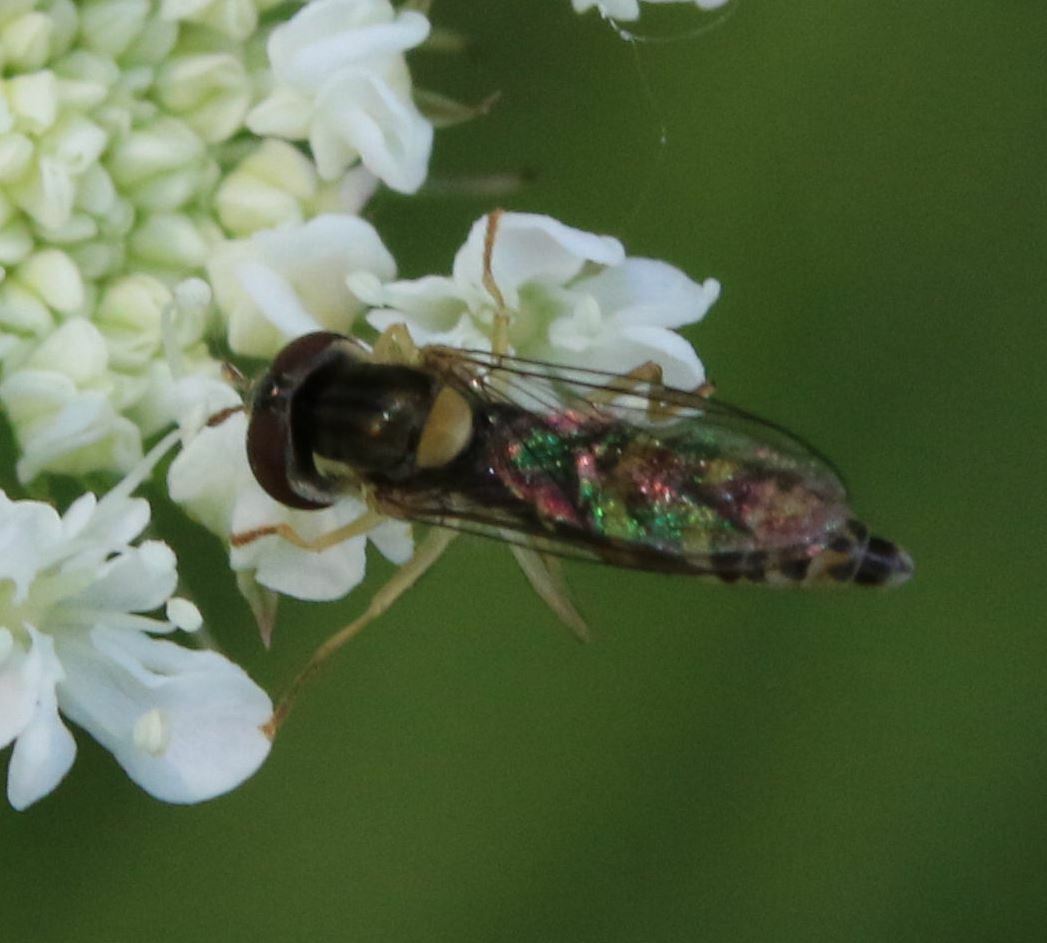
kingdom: Animalia
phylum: Arthropoda
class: Insecta
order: Diptera
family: Syrphidae
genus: Sphaerophoria
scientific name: Sphaerophoria
